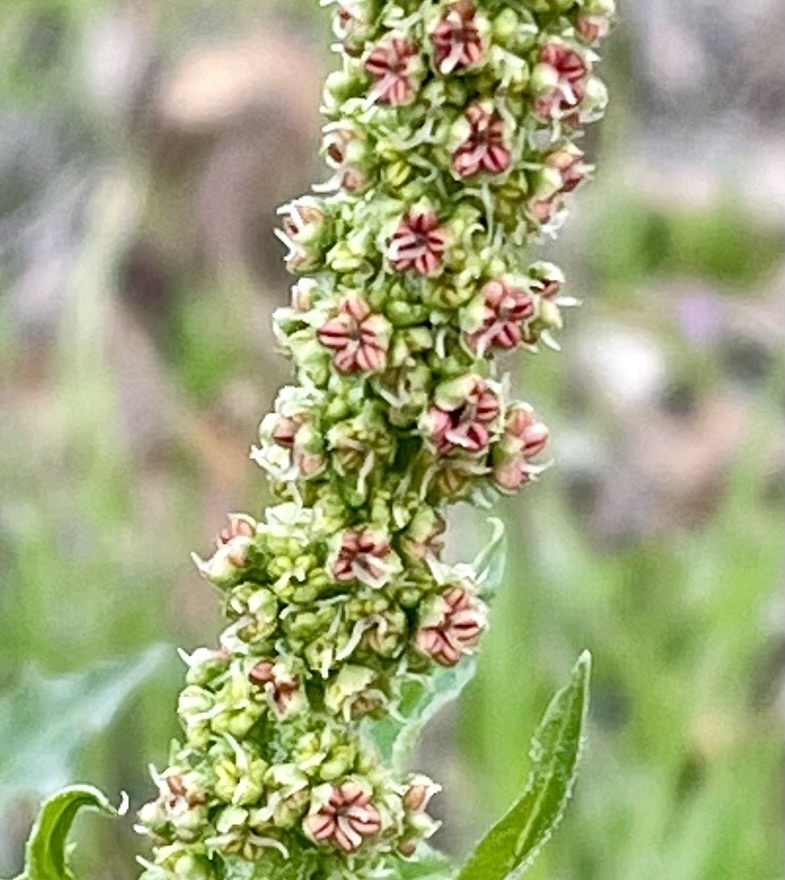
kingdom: Plantae
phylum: Tracheophyta
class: Magnoliopsida
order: Caryophyllales
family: Amaranthaceae
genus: Blitum
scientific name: Blitum californicum
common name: California goosefoot
